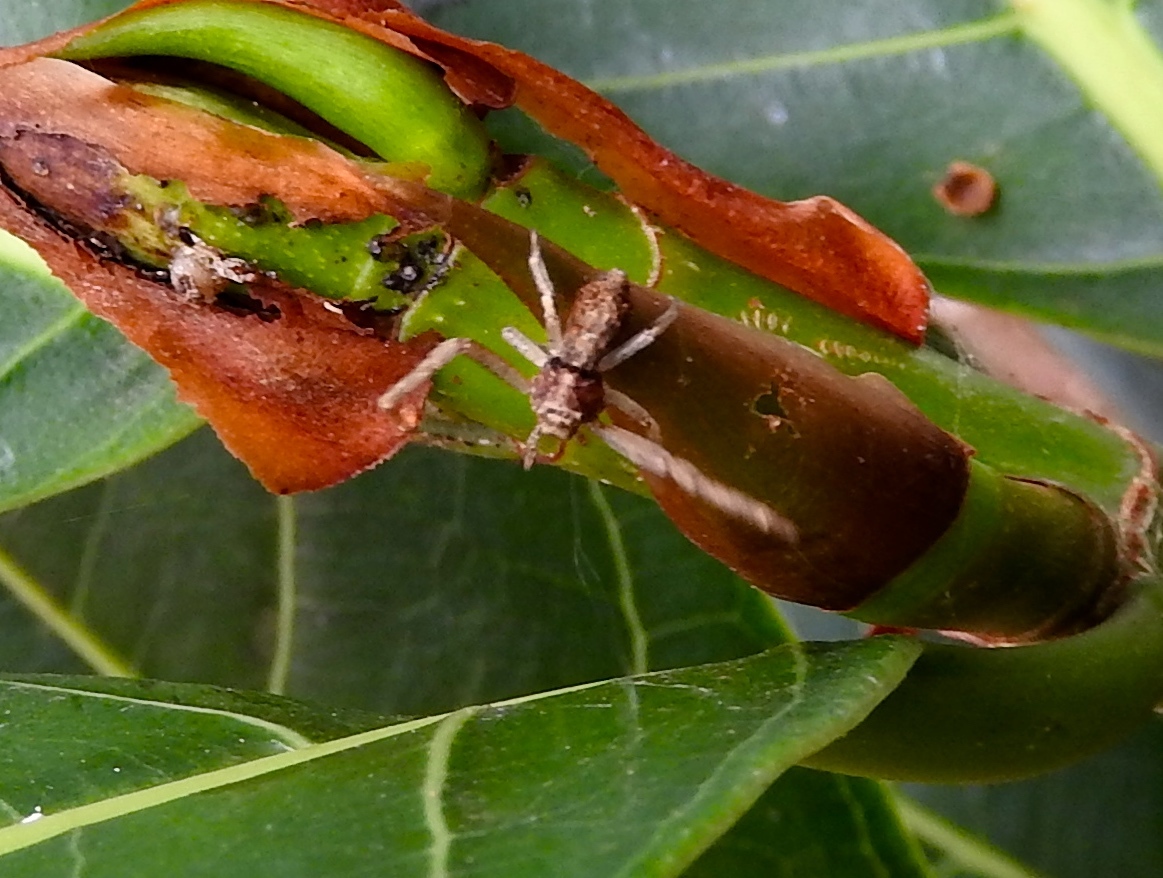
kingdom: Animalia
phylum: Arthropoda
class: Arachnida
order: Araneae
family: Thomisidae
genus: Tmarus
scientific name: Tmarus
